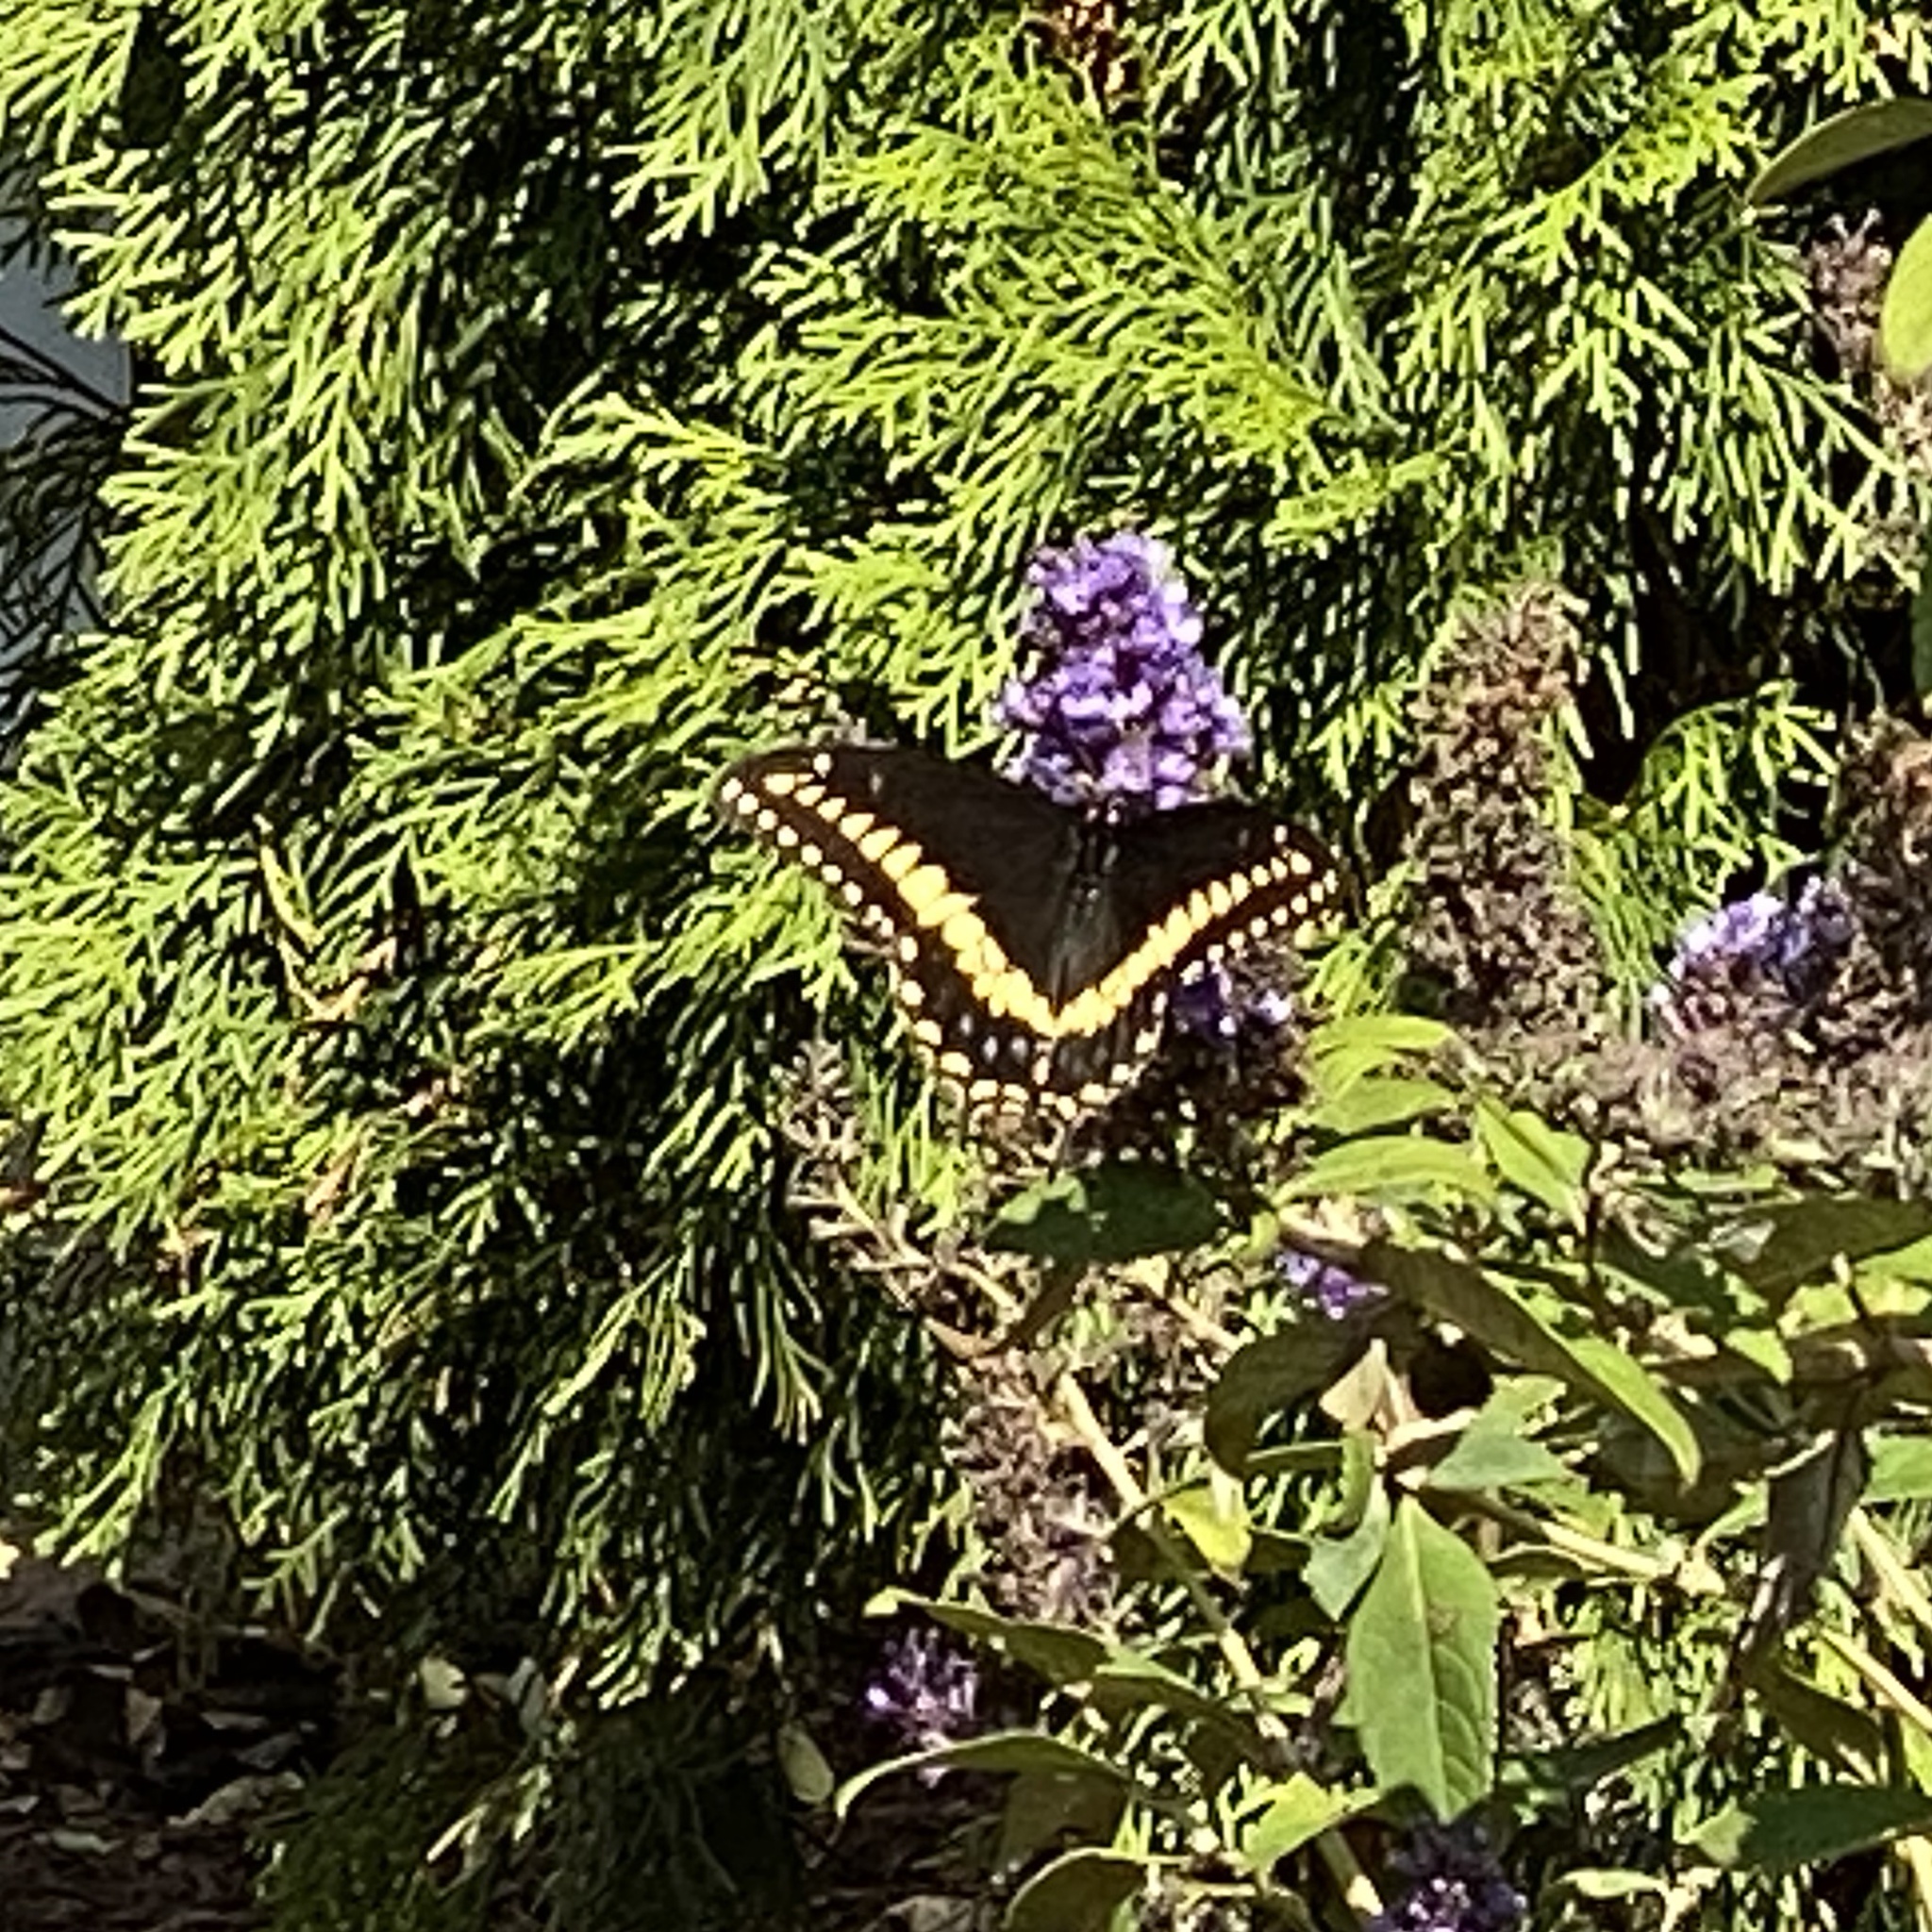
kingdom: Animalia
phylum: Arthropoda
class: Insecta
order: Lepidoptera
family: Papilionidae
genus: Papilio
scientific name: Papilio polyxenes
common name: Black swallowtail
